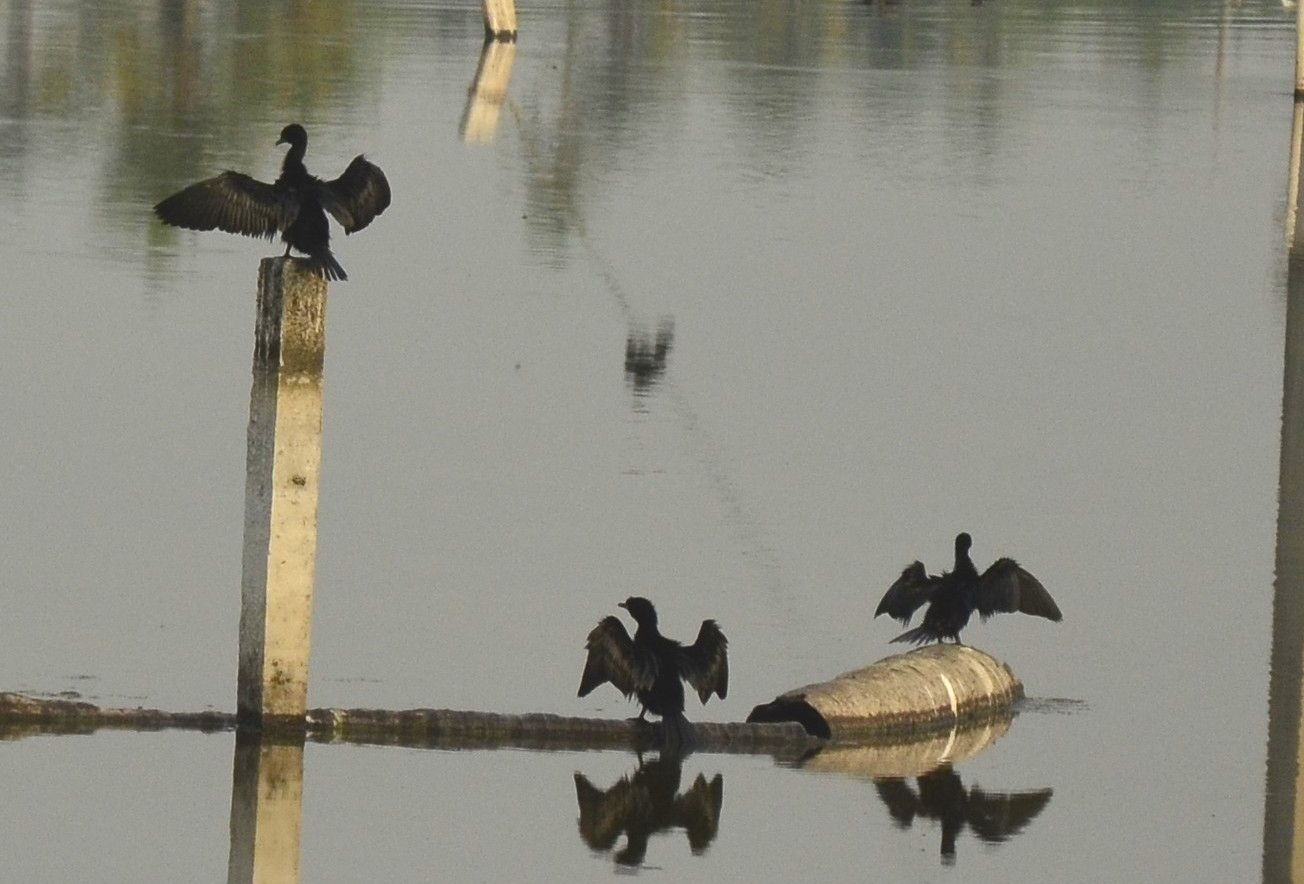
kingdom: Animalia
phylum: Chordata
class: Aves
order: Suliformes
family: Phalacrocoracidae
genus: Microcarbo
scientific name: Microcarbo niger
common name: Little cormorant
